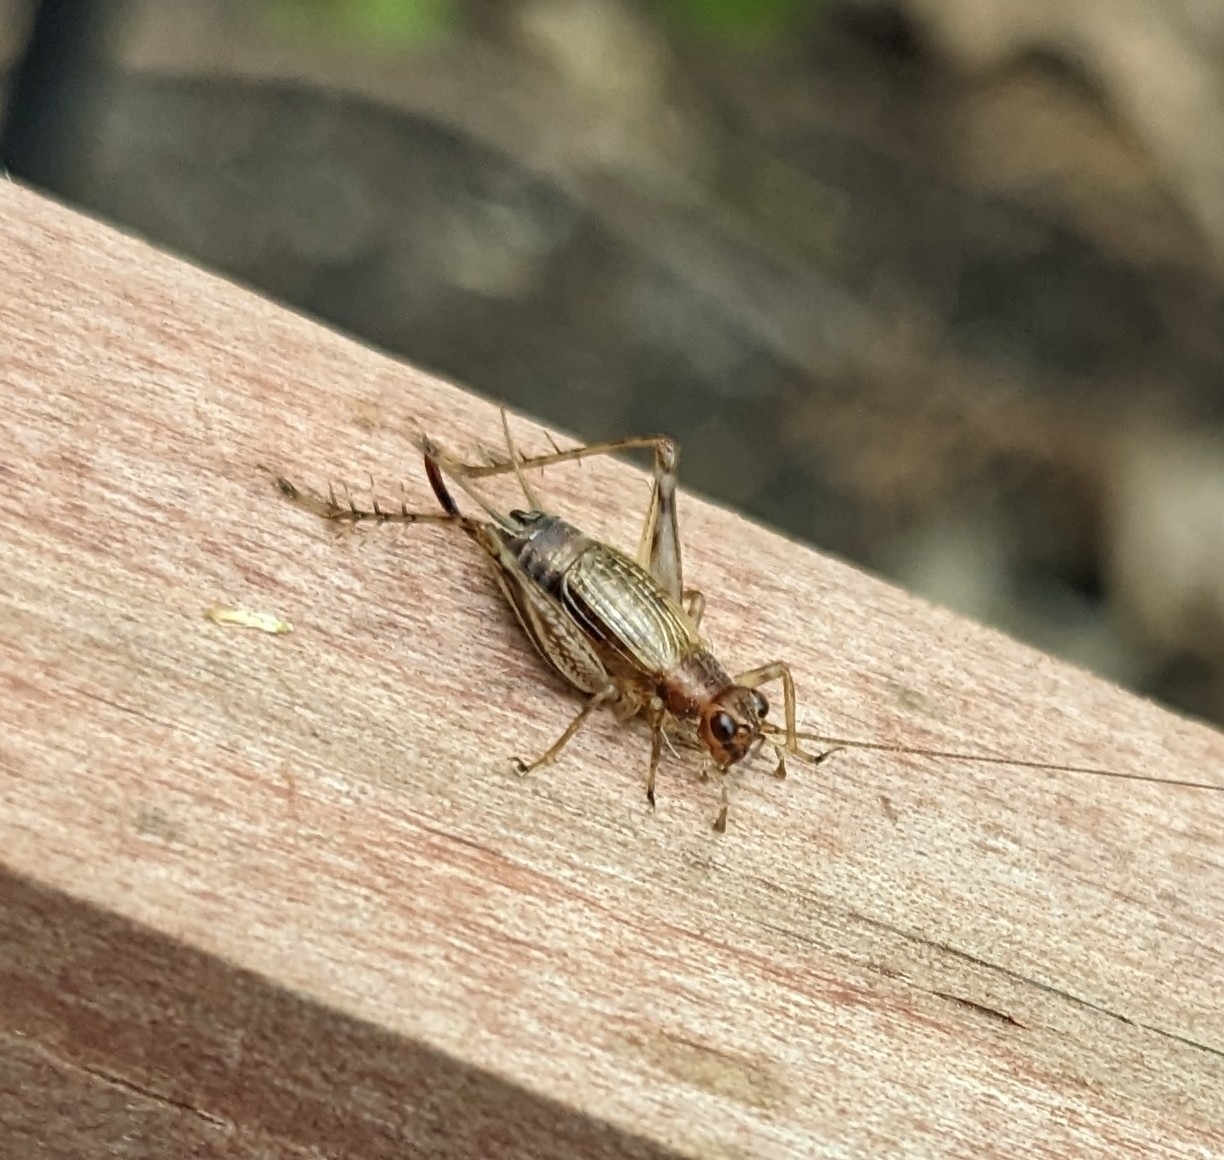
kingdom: Animalia
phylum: Arthropoda
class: Insecta
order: Orthoptera
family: Trigonidiidae
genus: Anaxipha
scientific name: Anaxipha exigua
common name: Say's bush cricket
